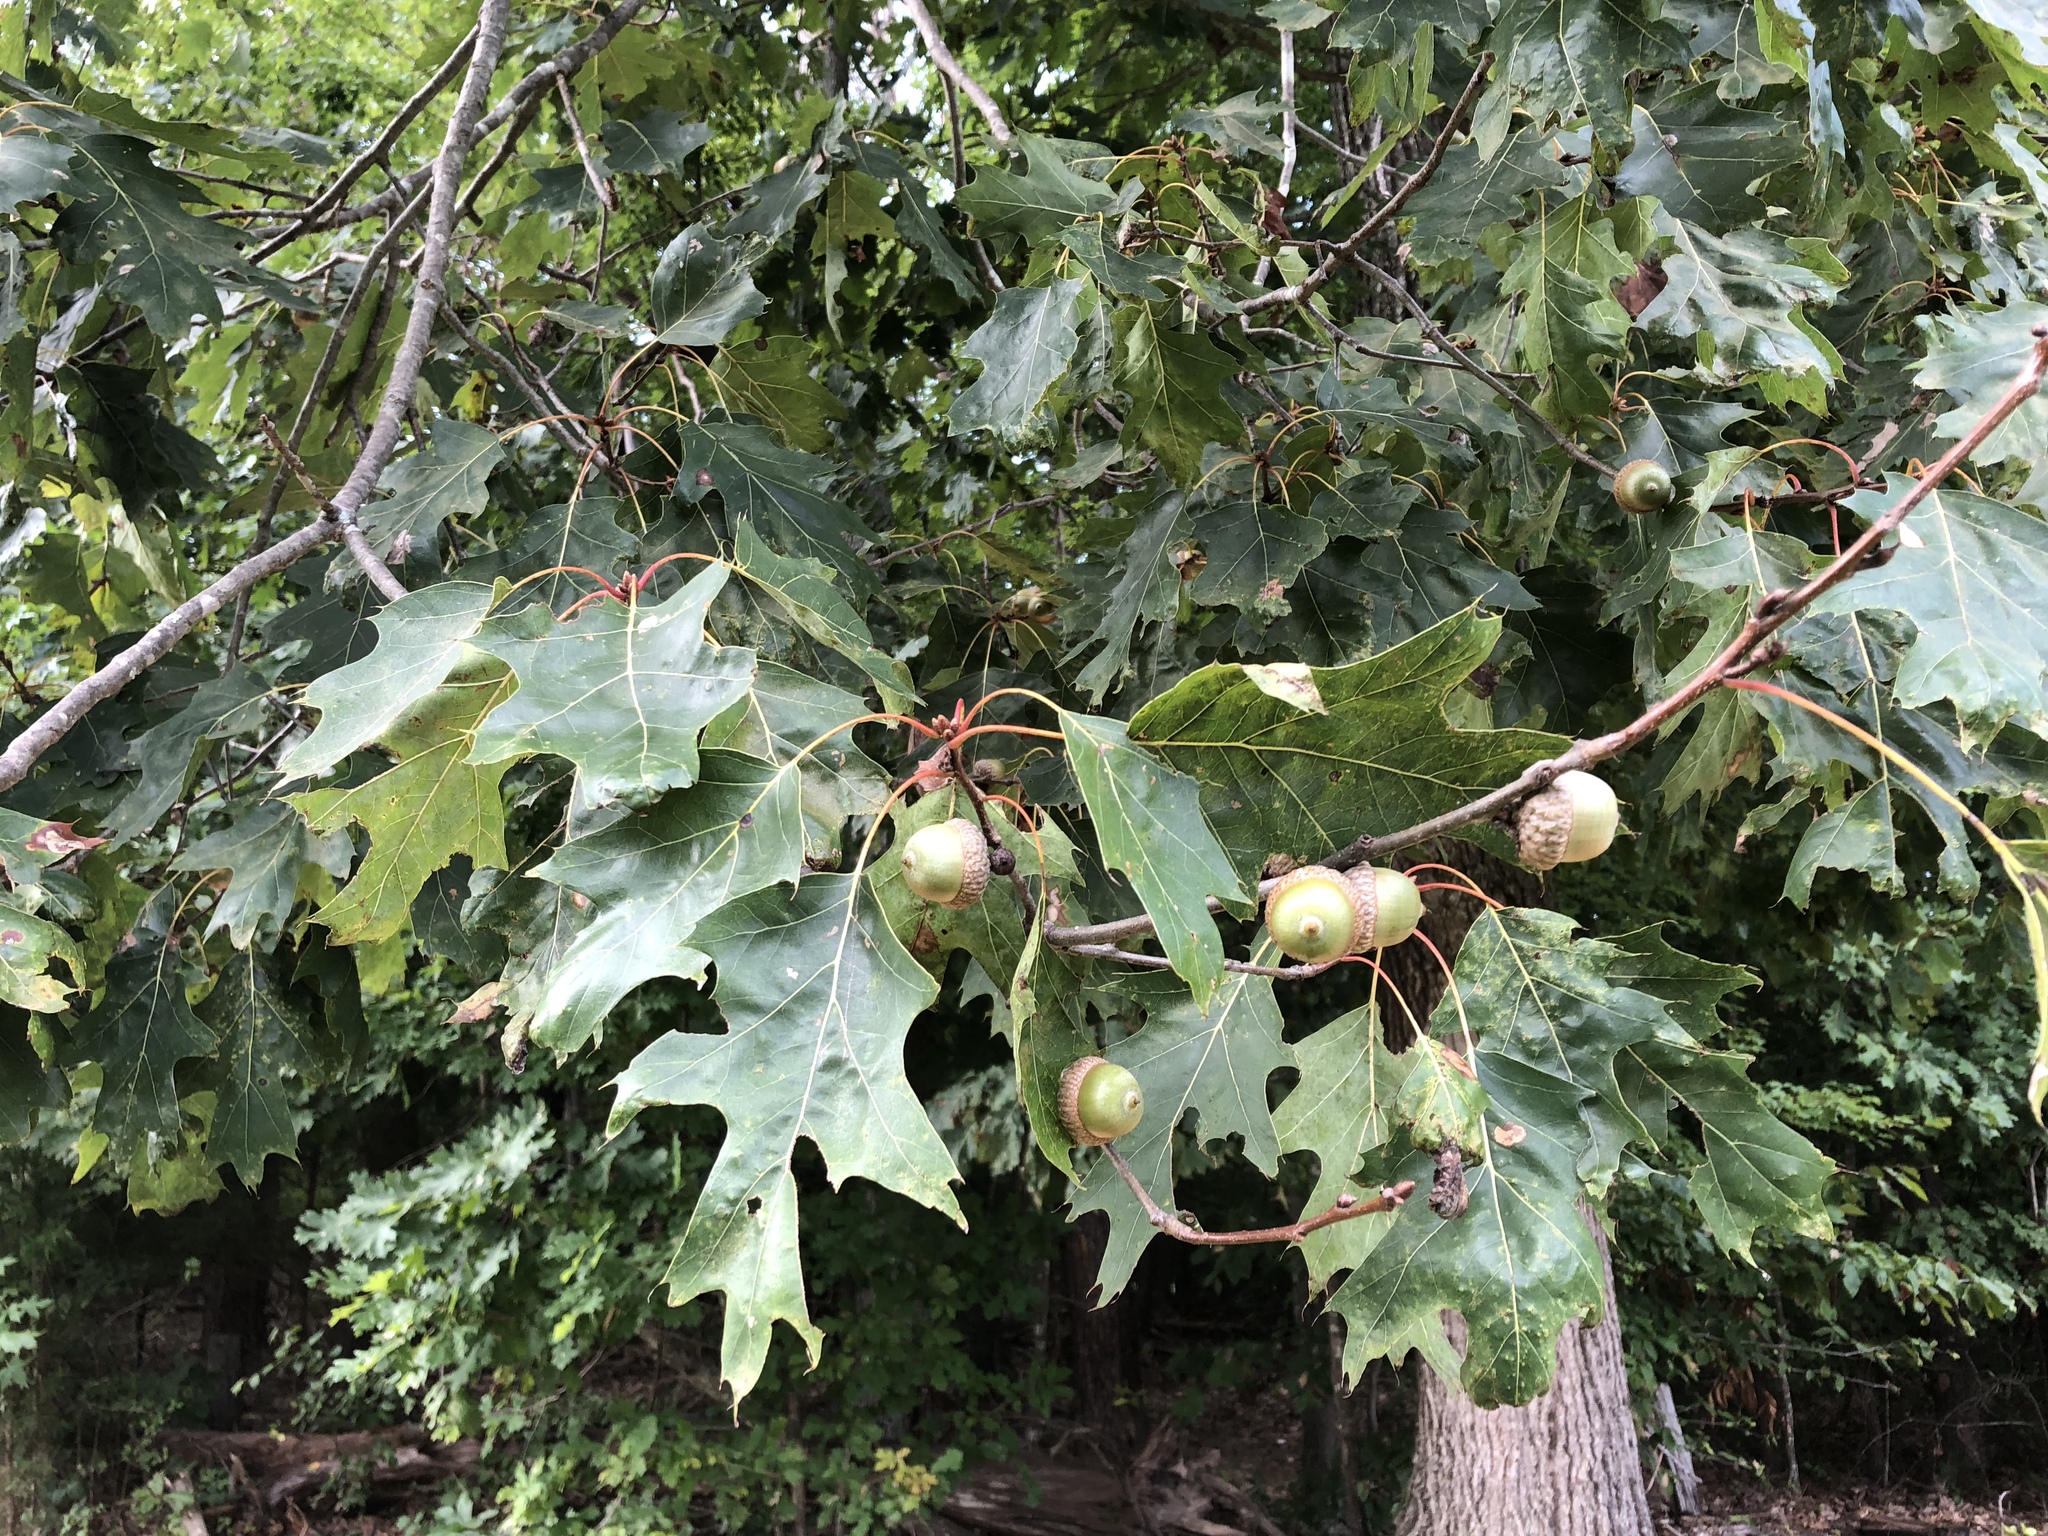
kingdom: Plantae
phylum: Tracheophyta
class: Magnoliopsida
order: Fagales
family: Fagaceae
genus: Quercus
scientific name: Quercus rubra
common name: Red oak
